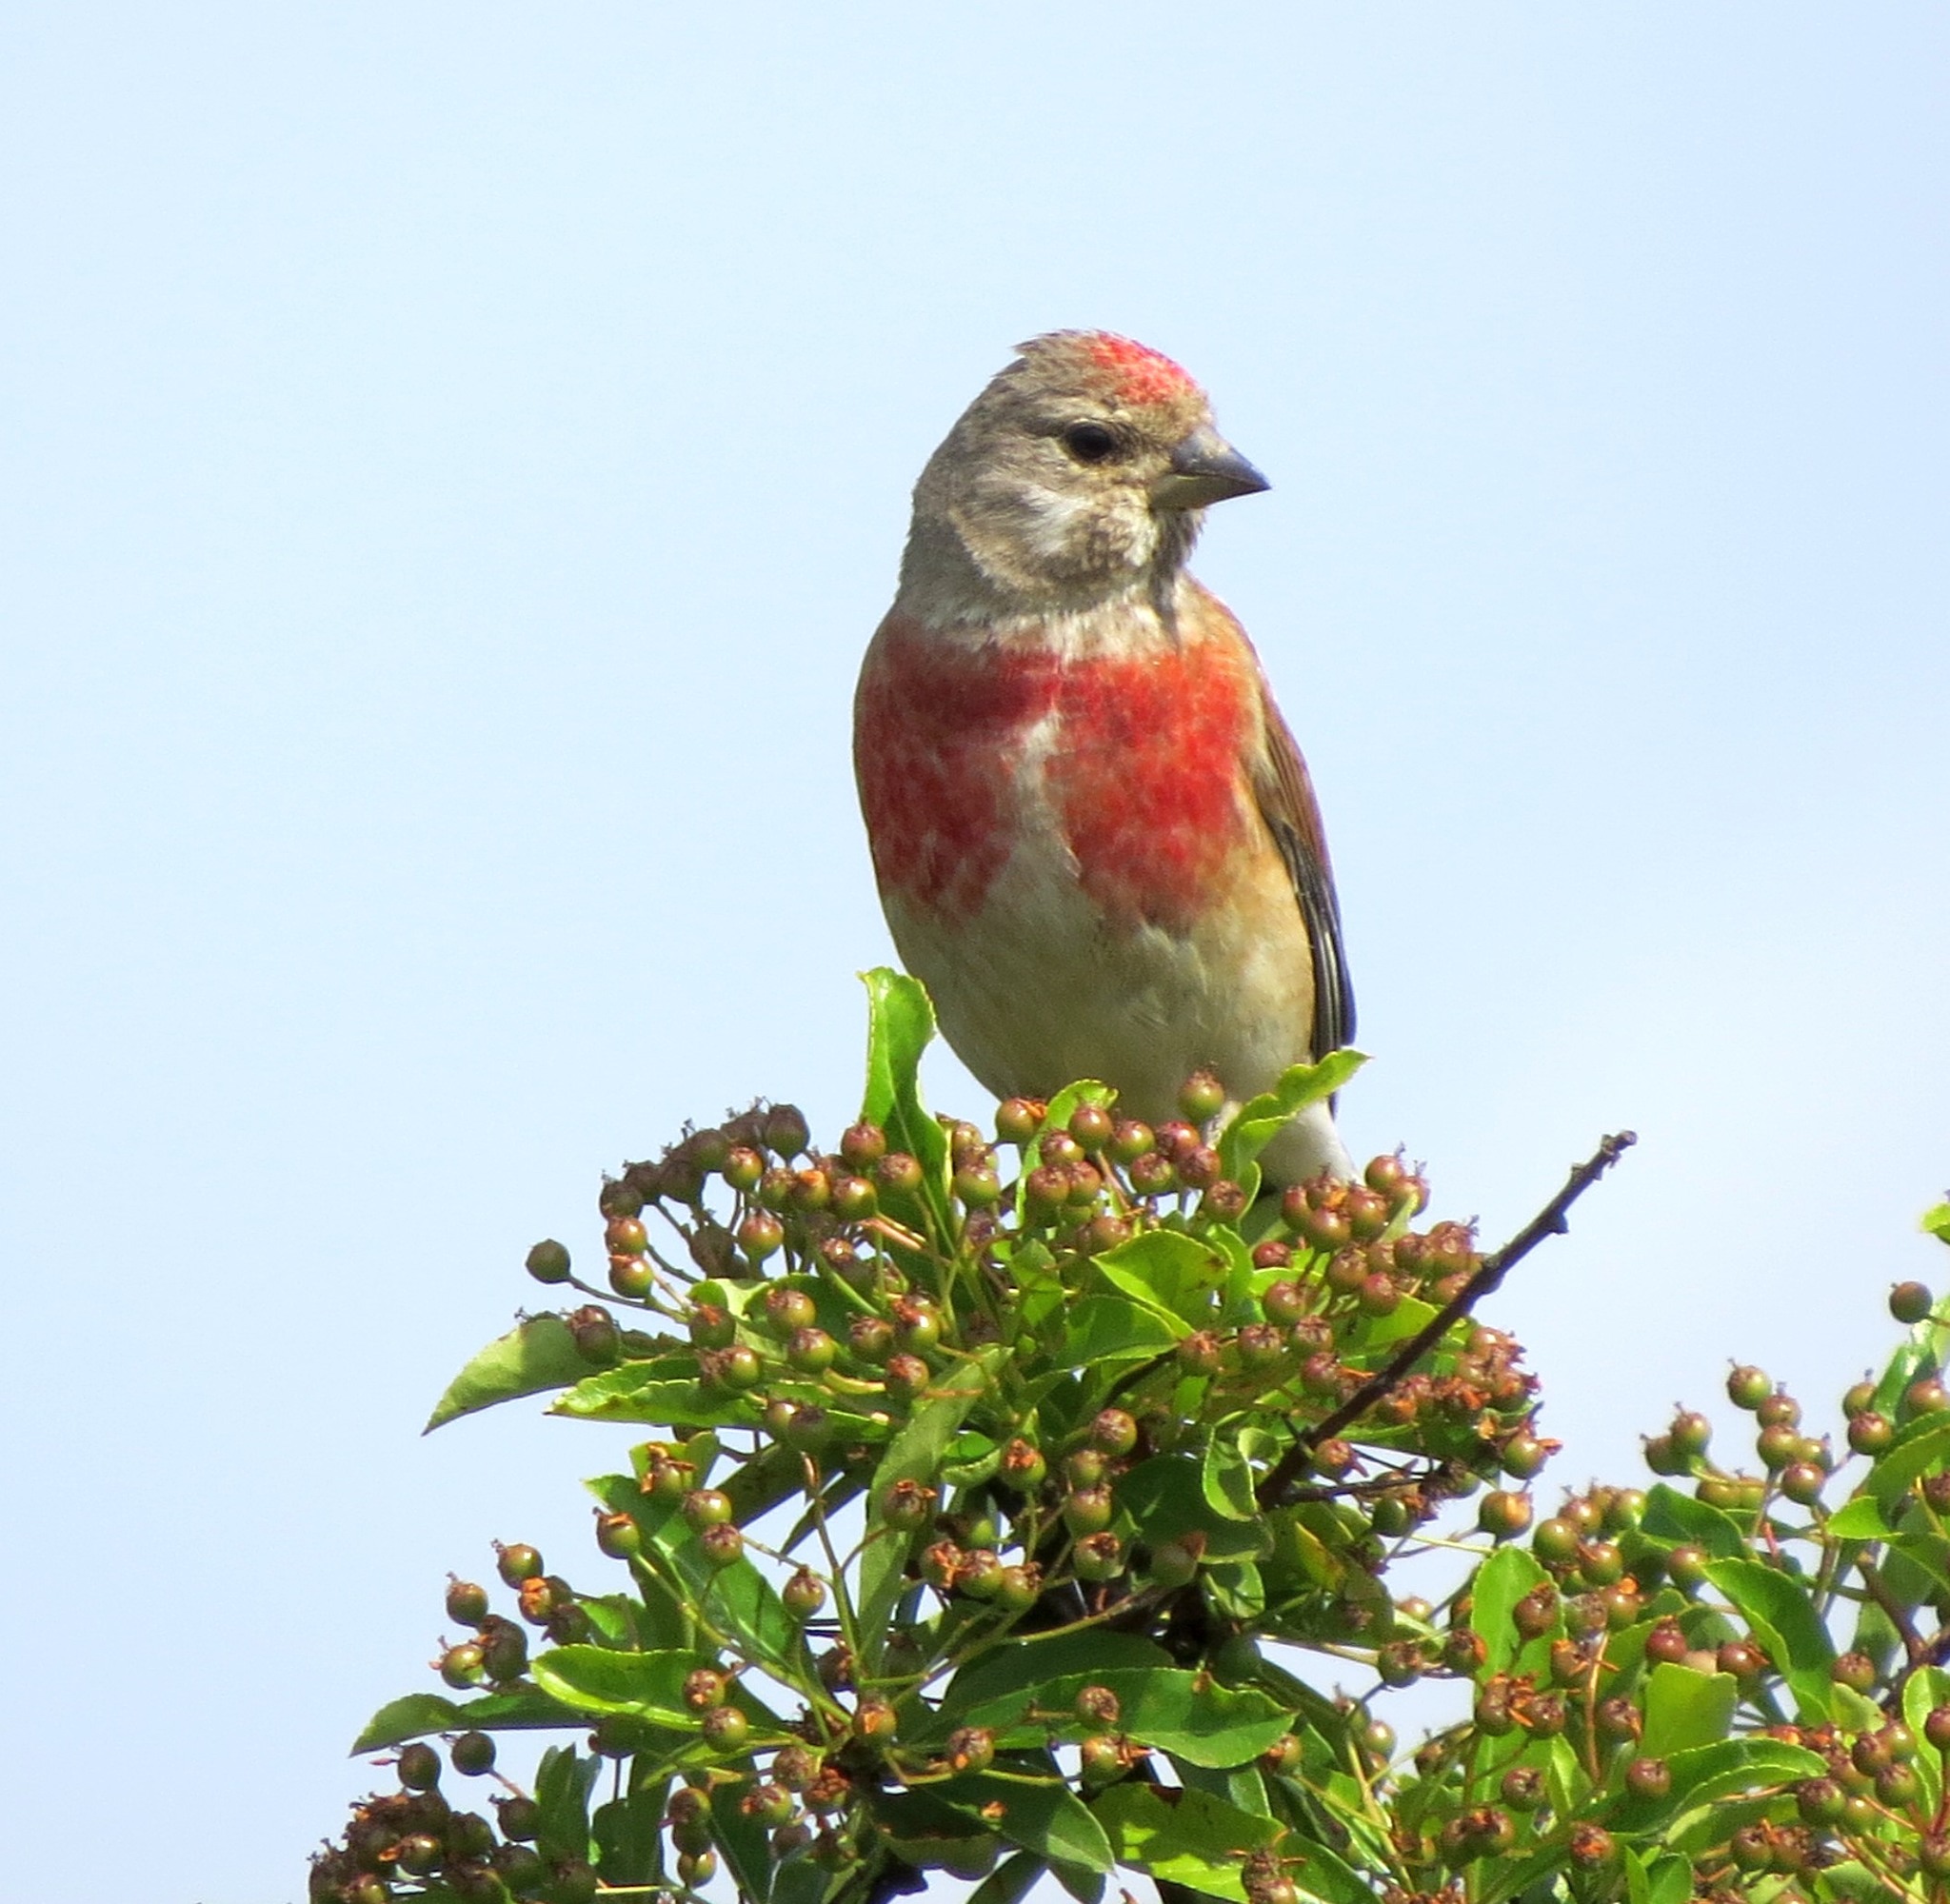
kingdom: Animalia
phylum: Chordata
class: Aves
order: Passeriformes
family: Fringillidae
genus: Linaria
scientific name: Linaria cannabina
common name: Common linnet
